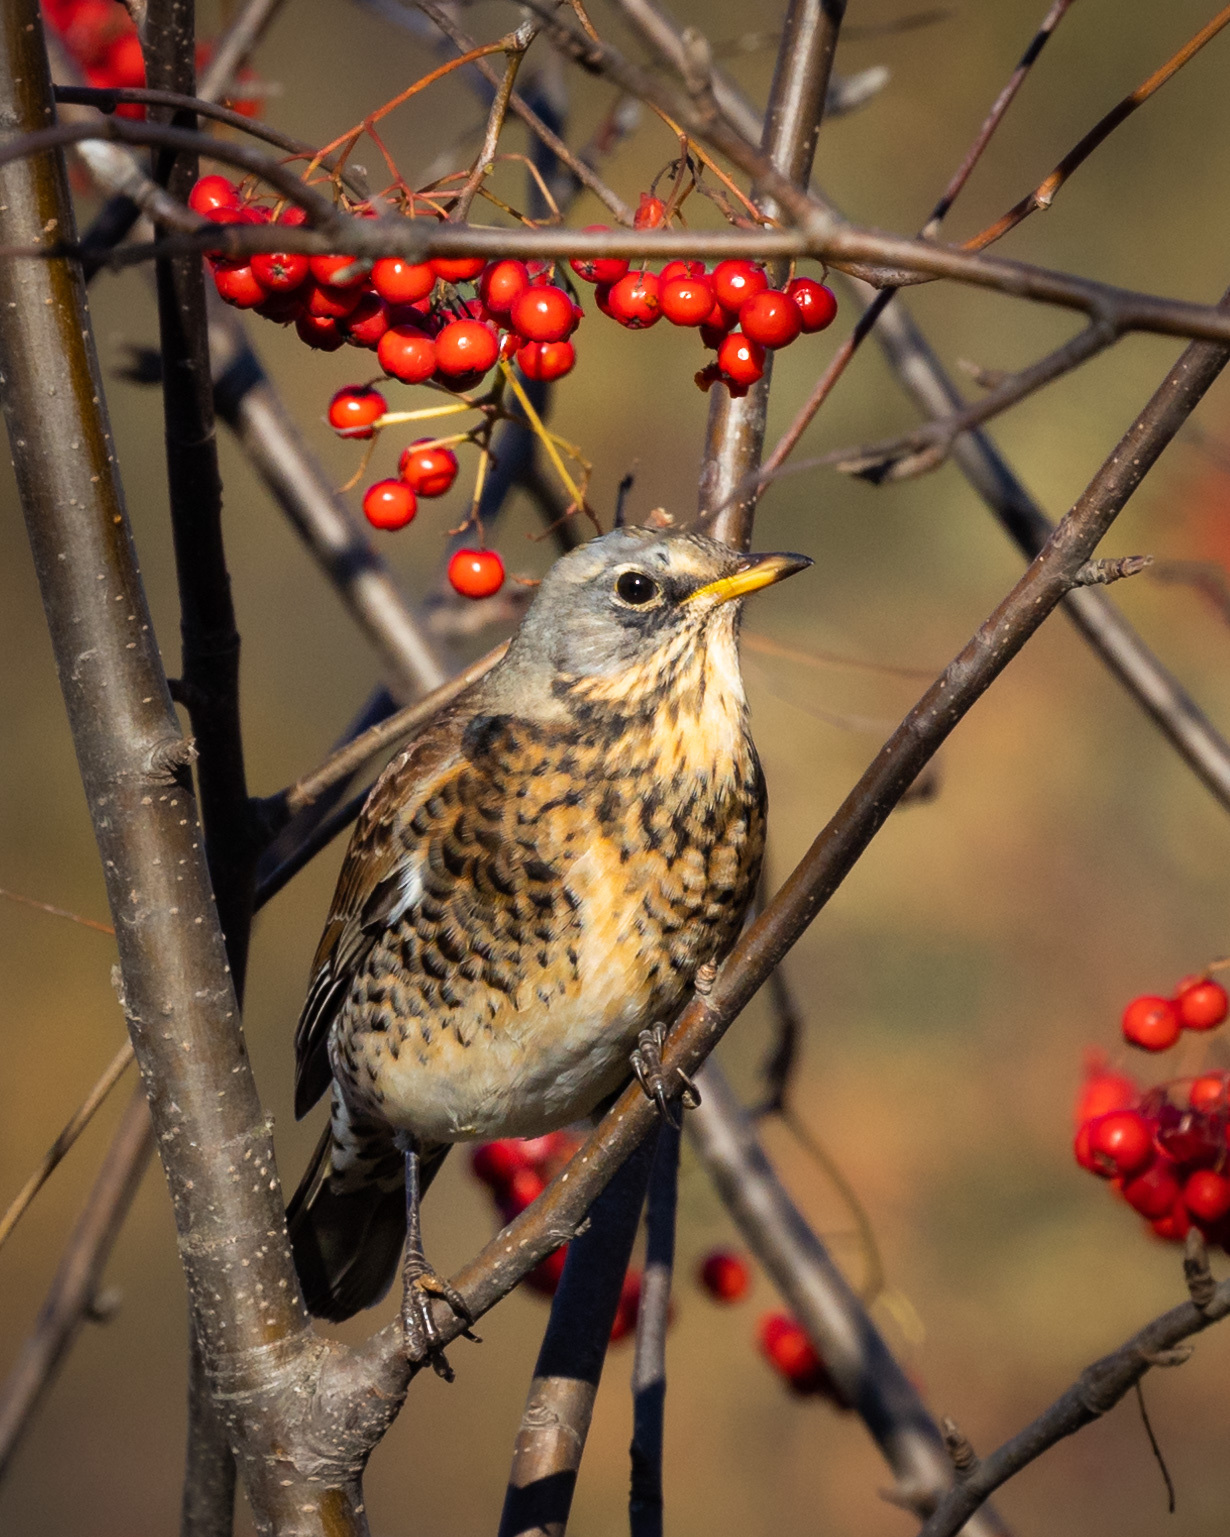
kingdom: Animalia
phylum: Chordata
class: Aves
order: Passeriformes
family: Turdidae
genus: Turdus
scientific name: Turdus pilaris
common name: Fieldfare
